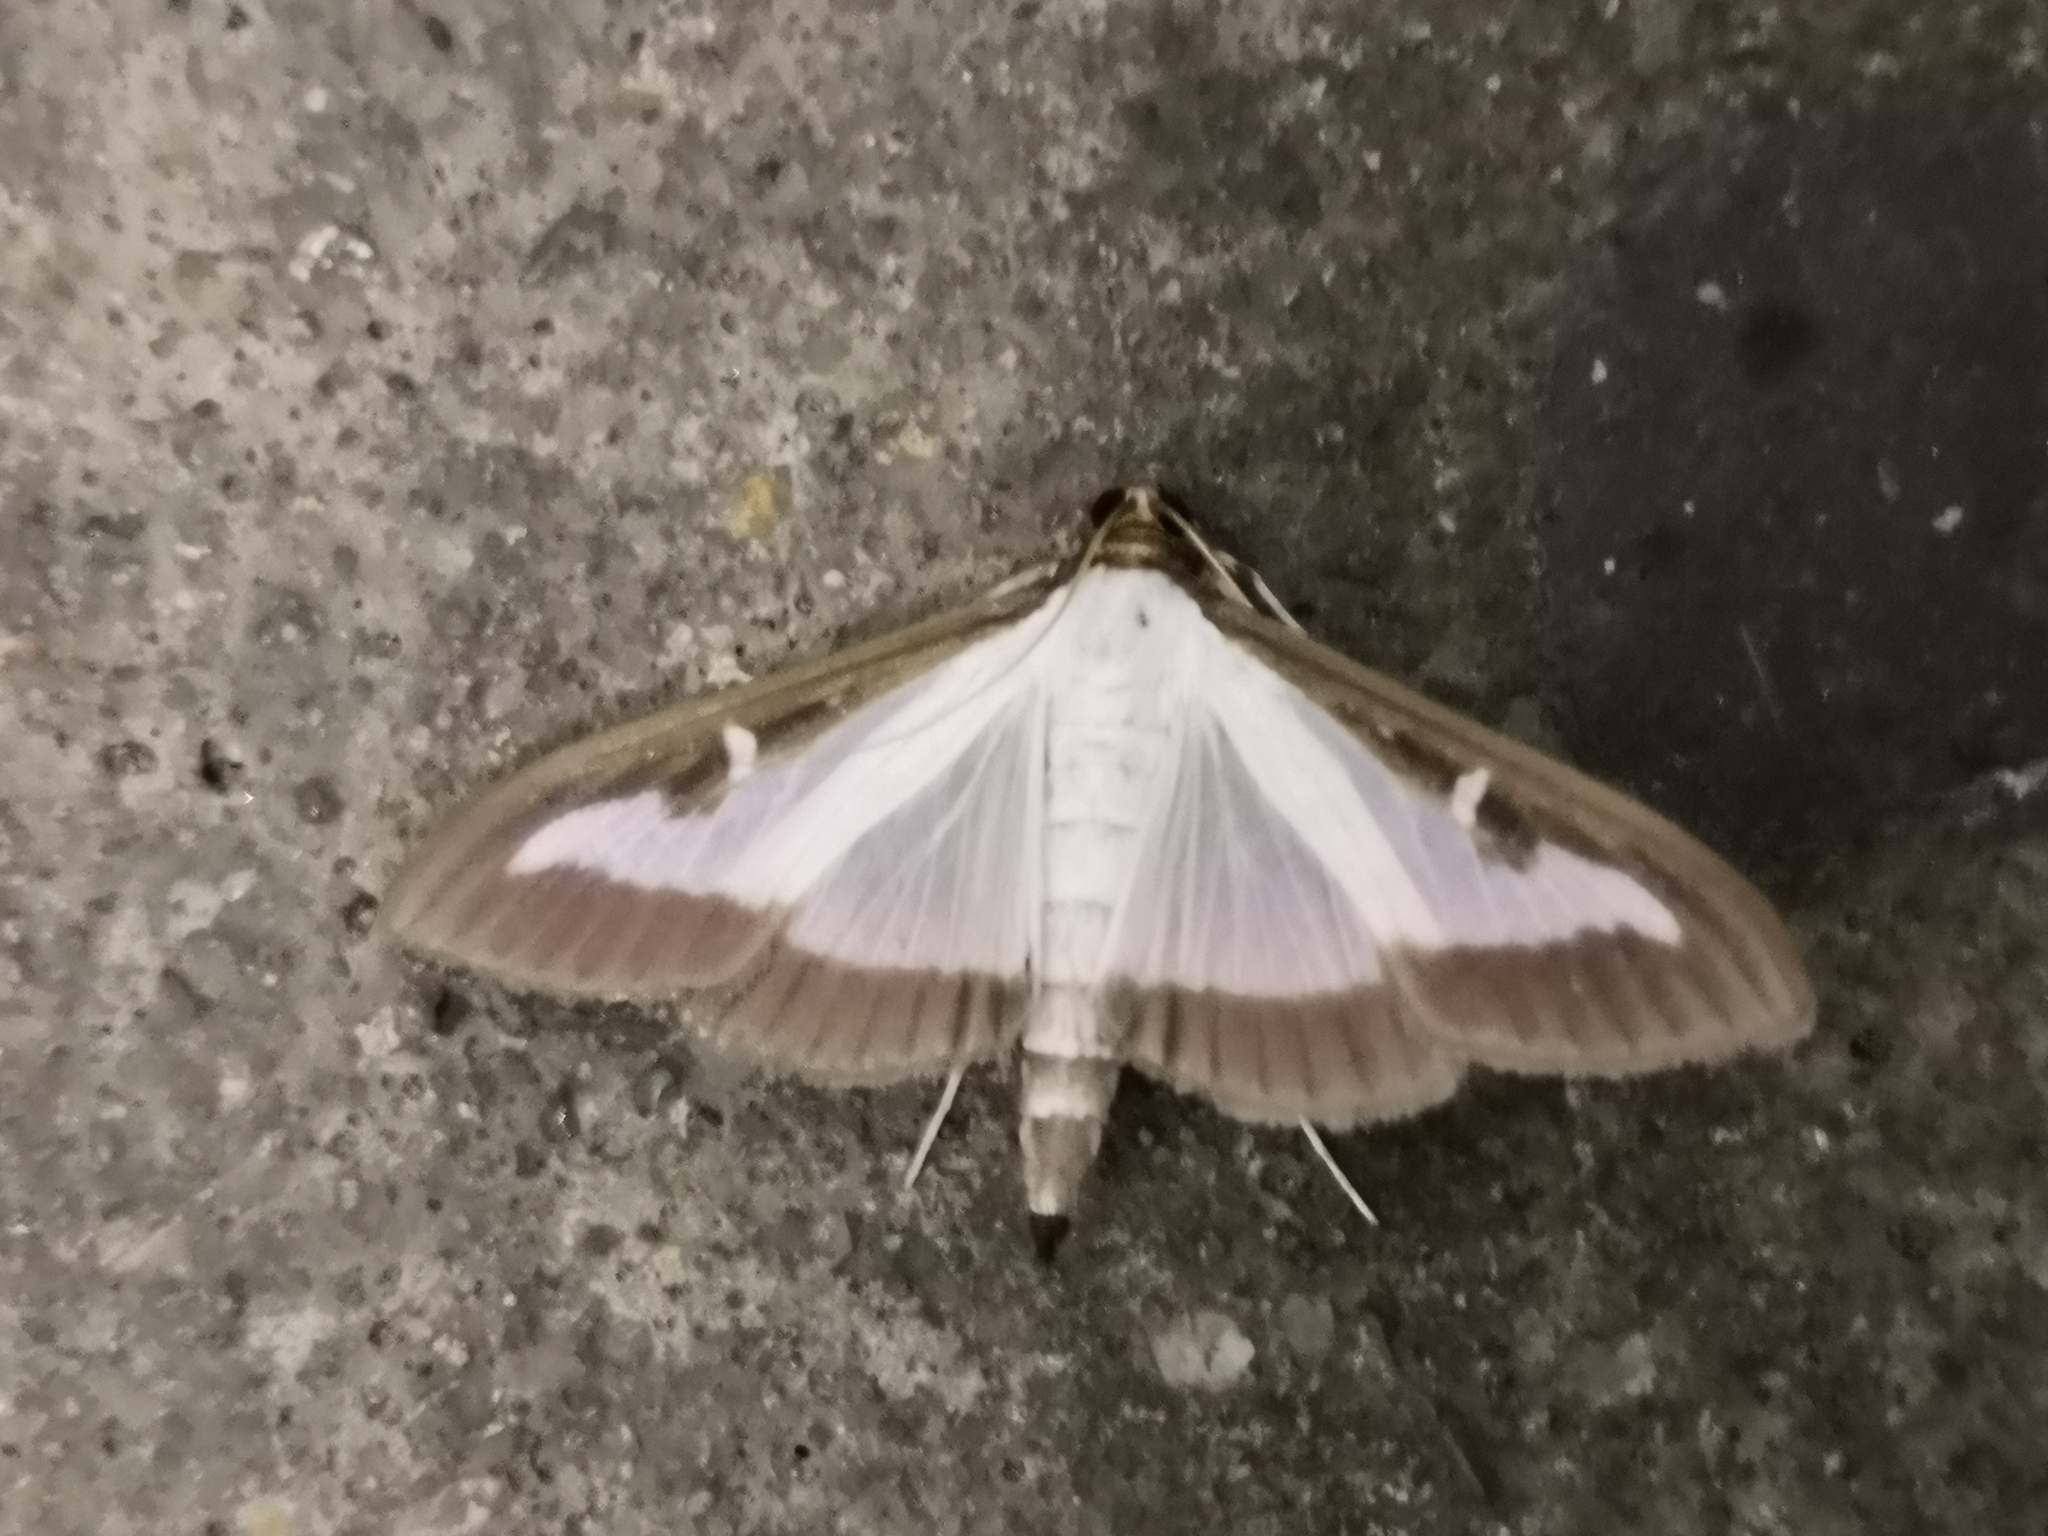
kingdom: Animalia
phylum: Arthropoda
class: Insecta
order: Lepidoptera
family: Crambidae
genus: Cydalima
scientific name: Cydalima perspectalis
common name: Box tree moth
